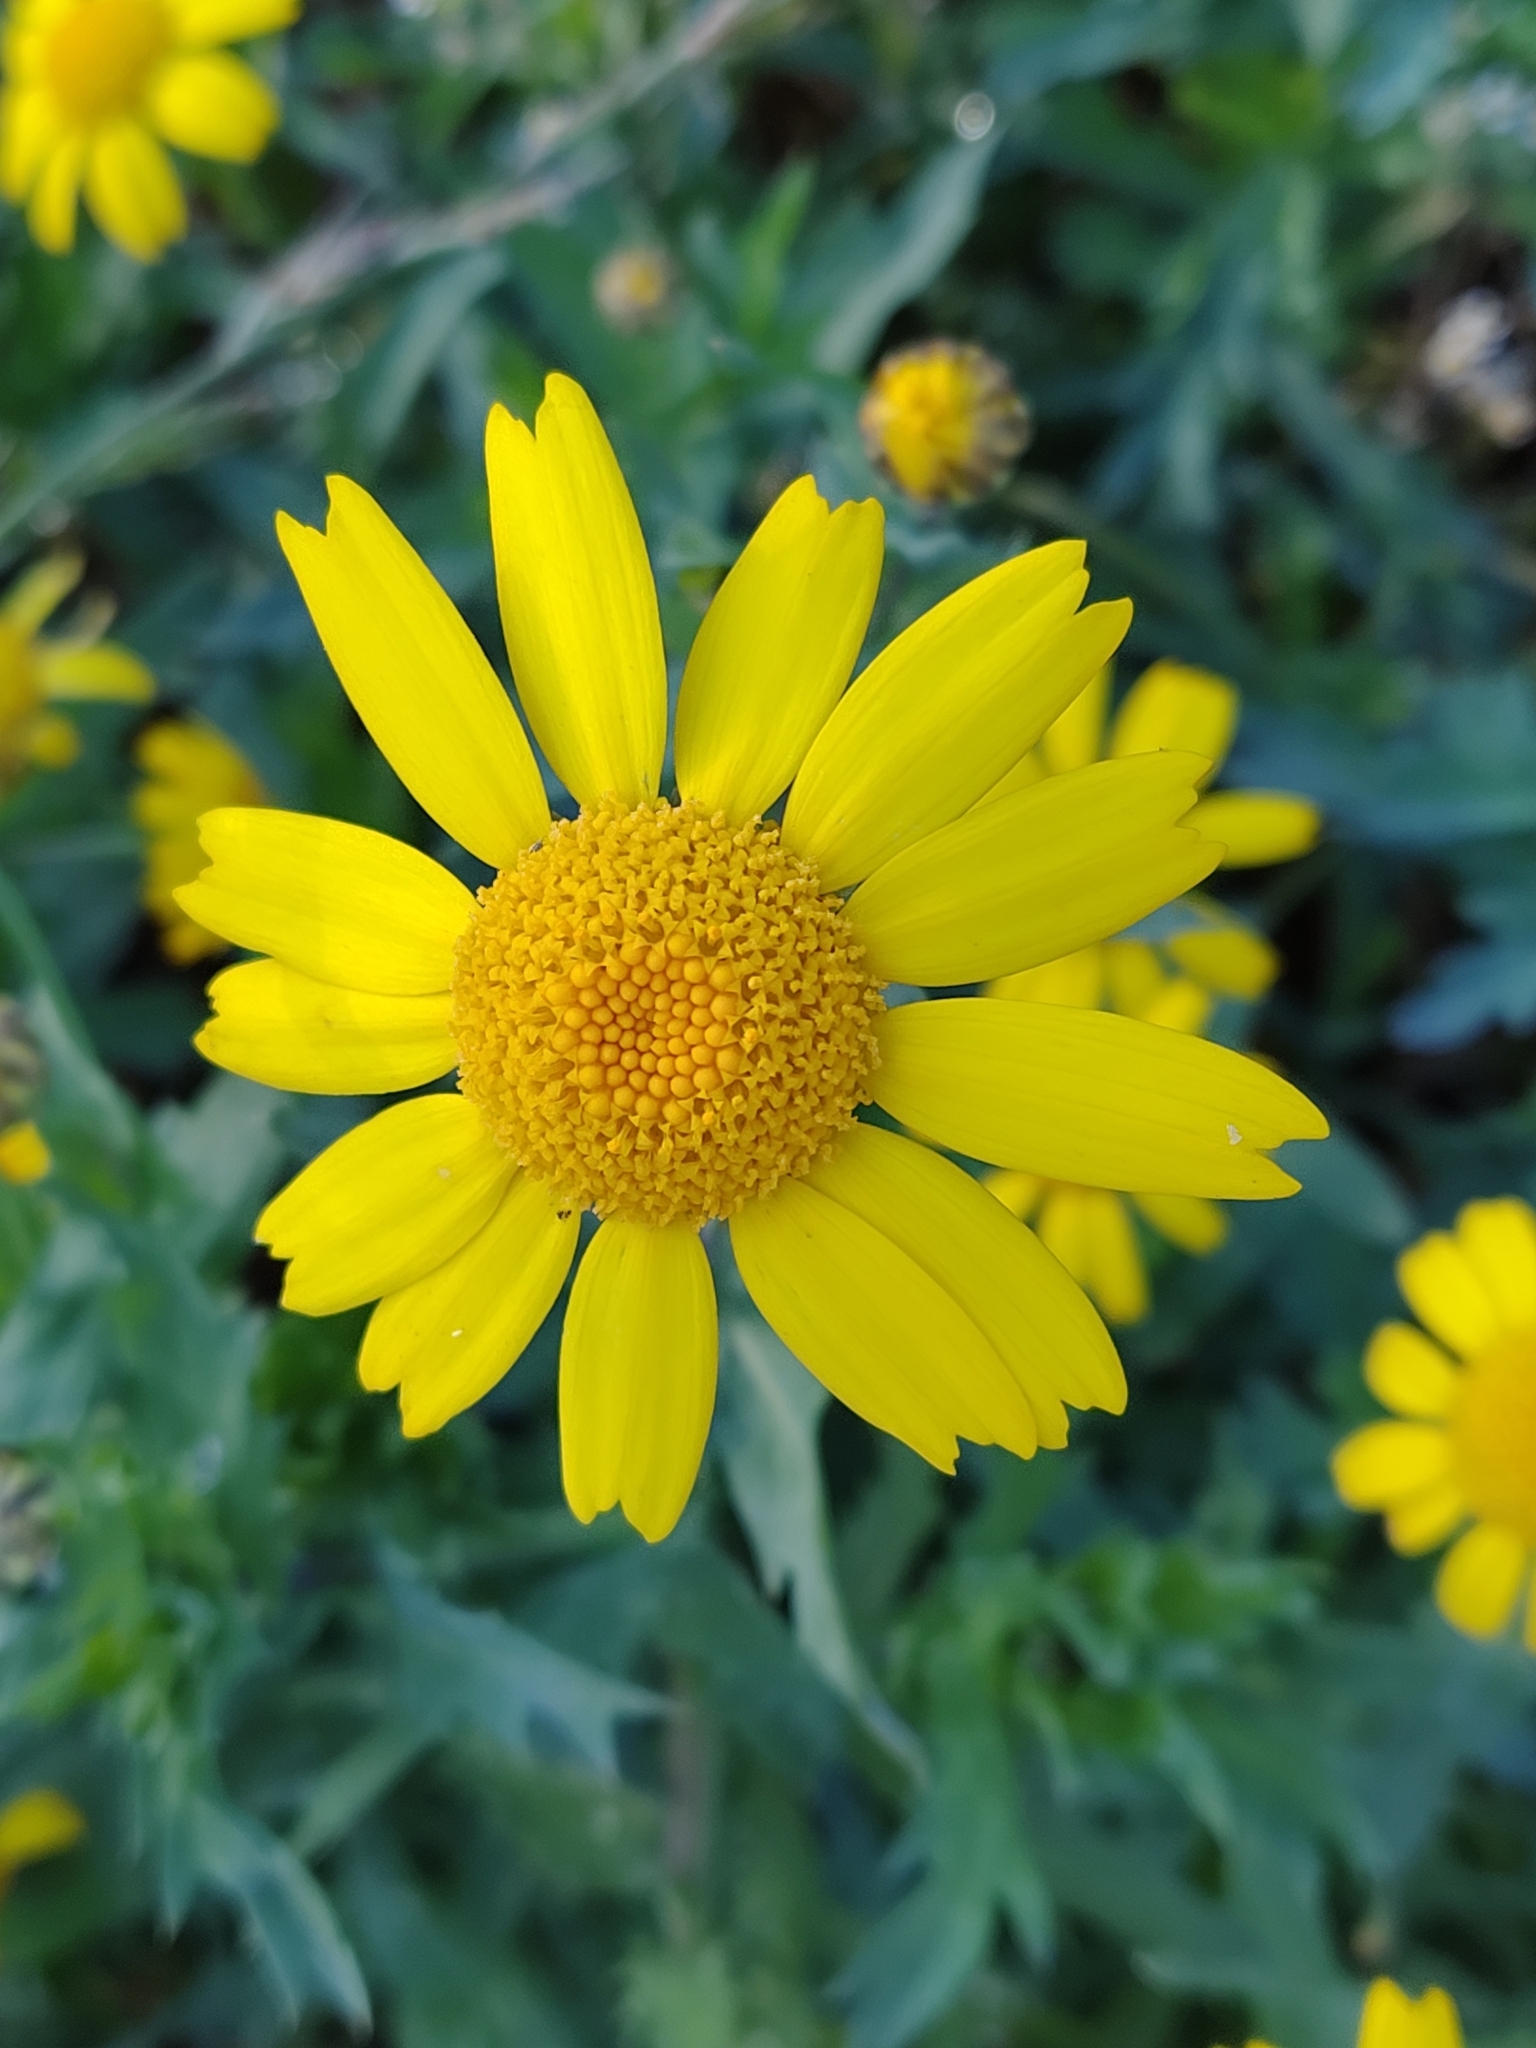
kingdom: Plantae
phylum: Tracheophyta
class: Magnoliopsida
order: Asterales
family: Asteraceae
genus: Glebionis
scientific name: Glebionis segetum
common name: Corndaisy
